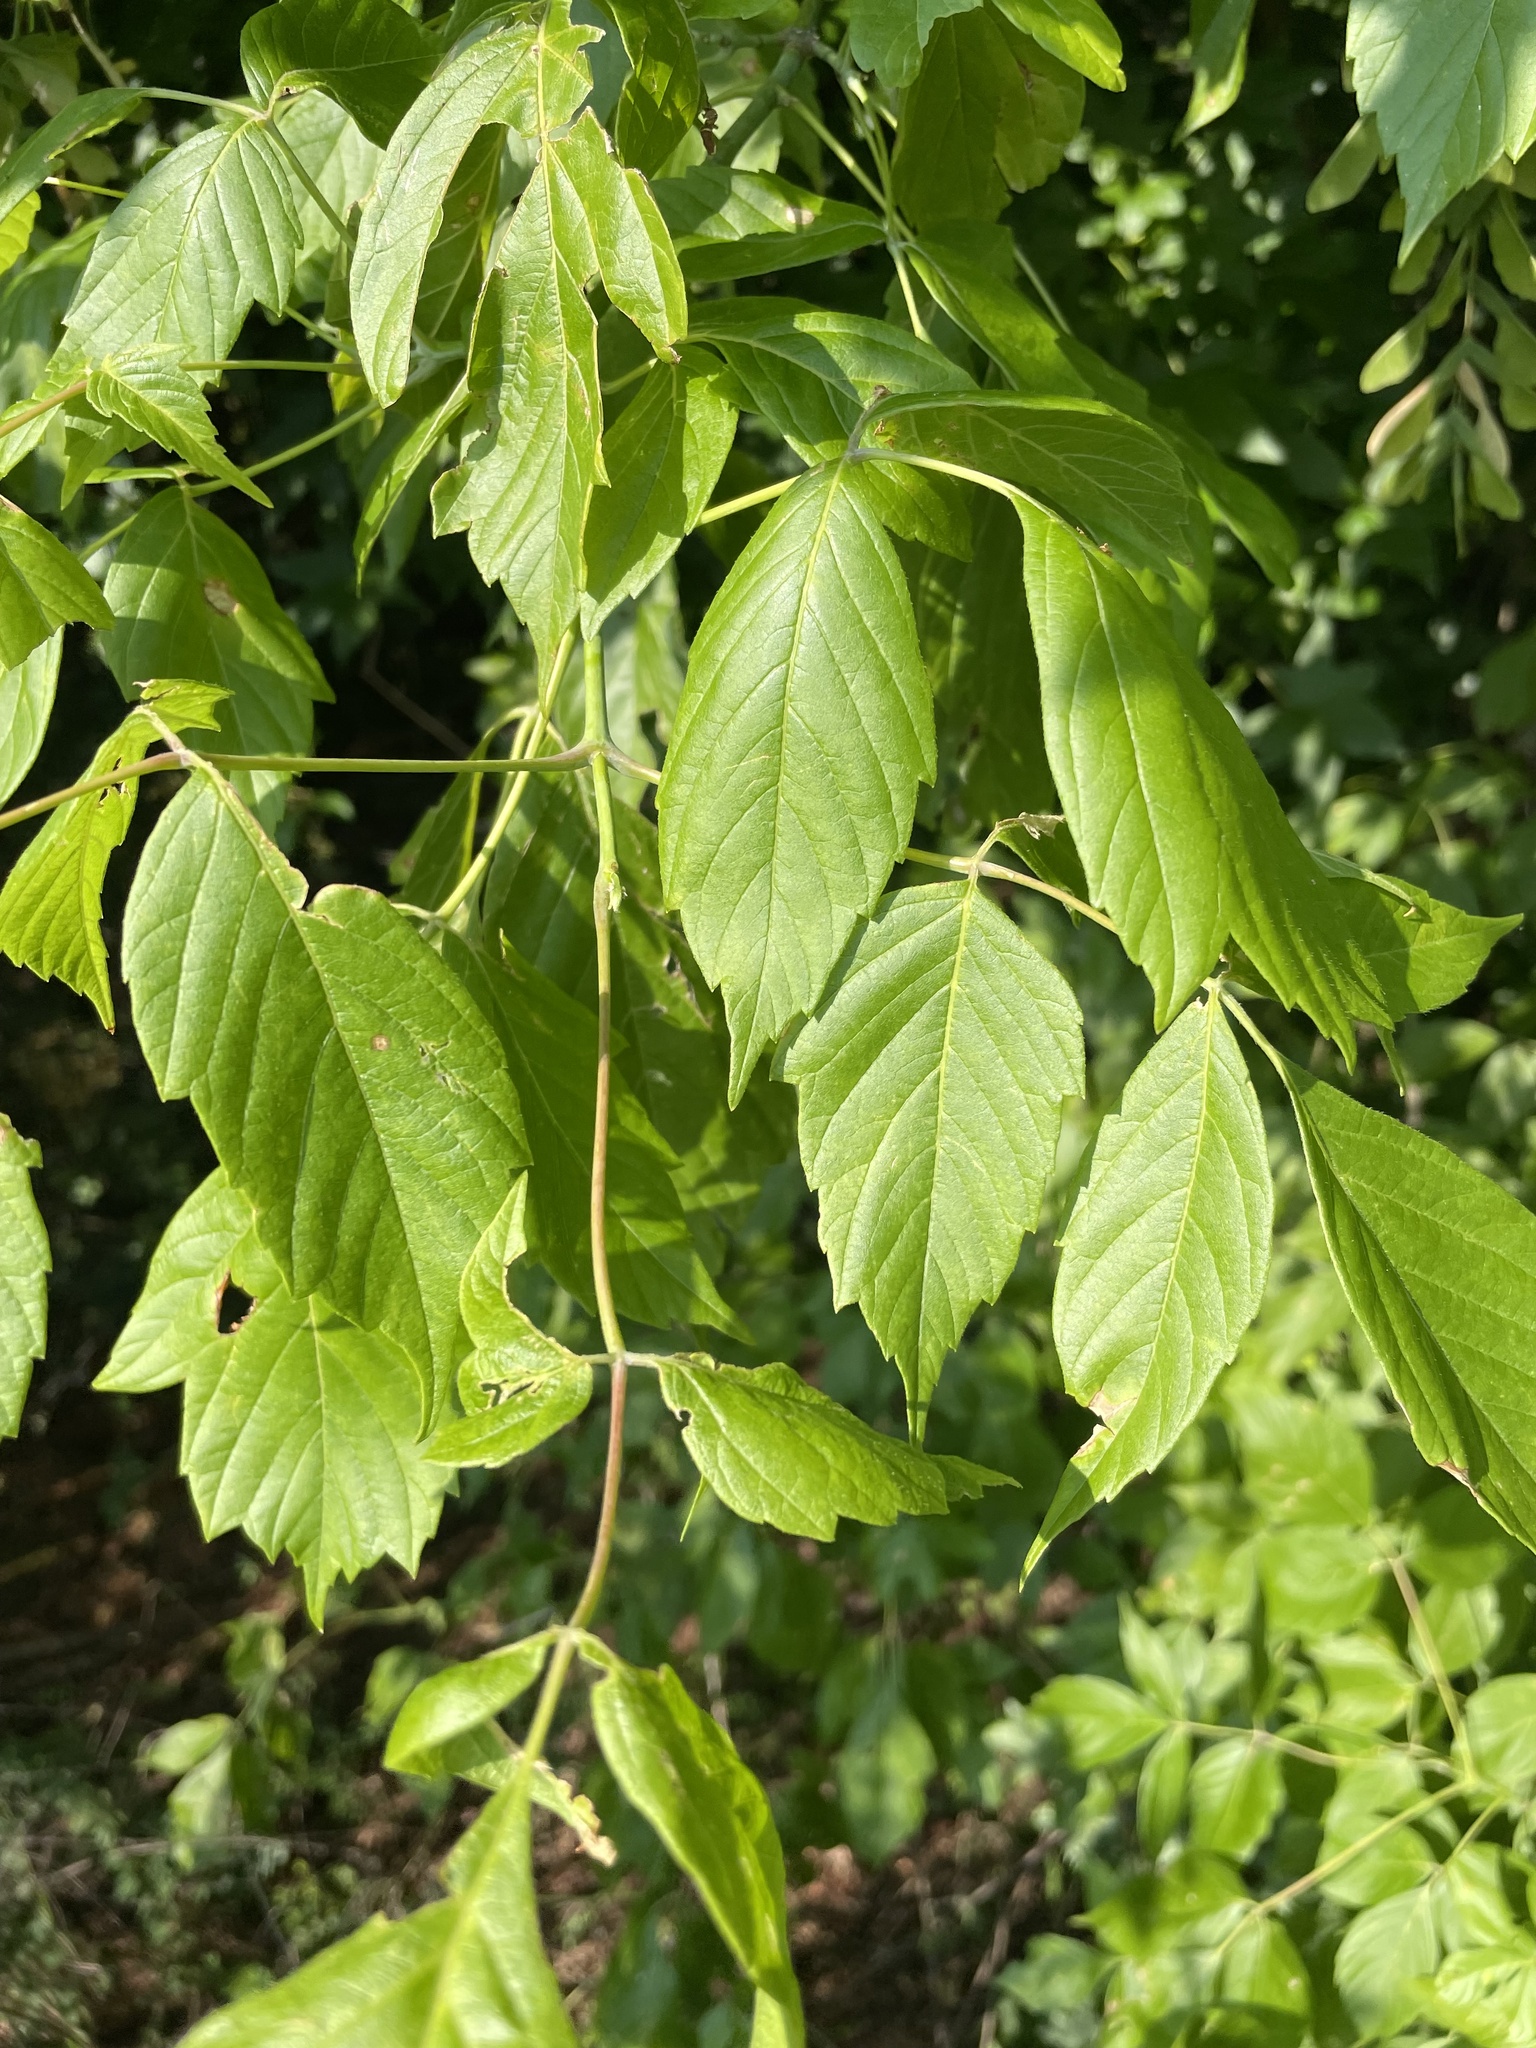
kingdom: Plantae
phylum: Tracheophyta
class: Magnoliopsida
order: Sapindales
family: Sapindaceae
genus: Acer
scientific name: Acer negundo
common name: Ashleaf maple
